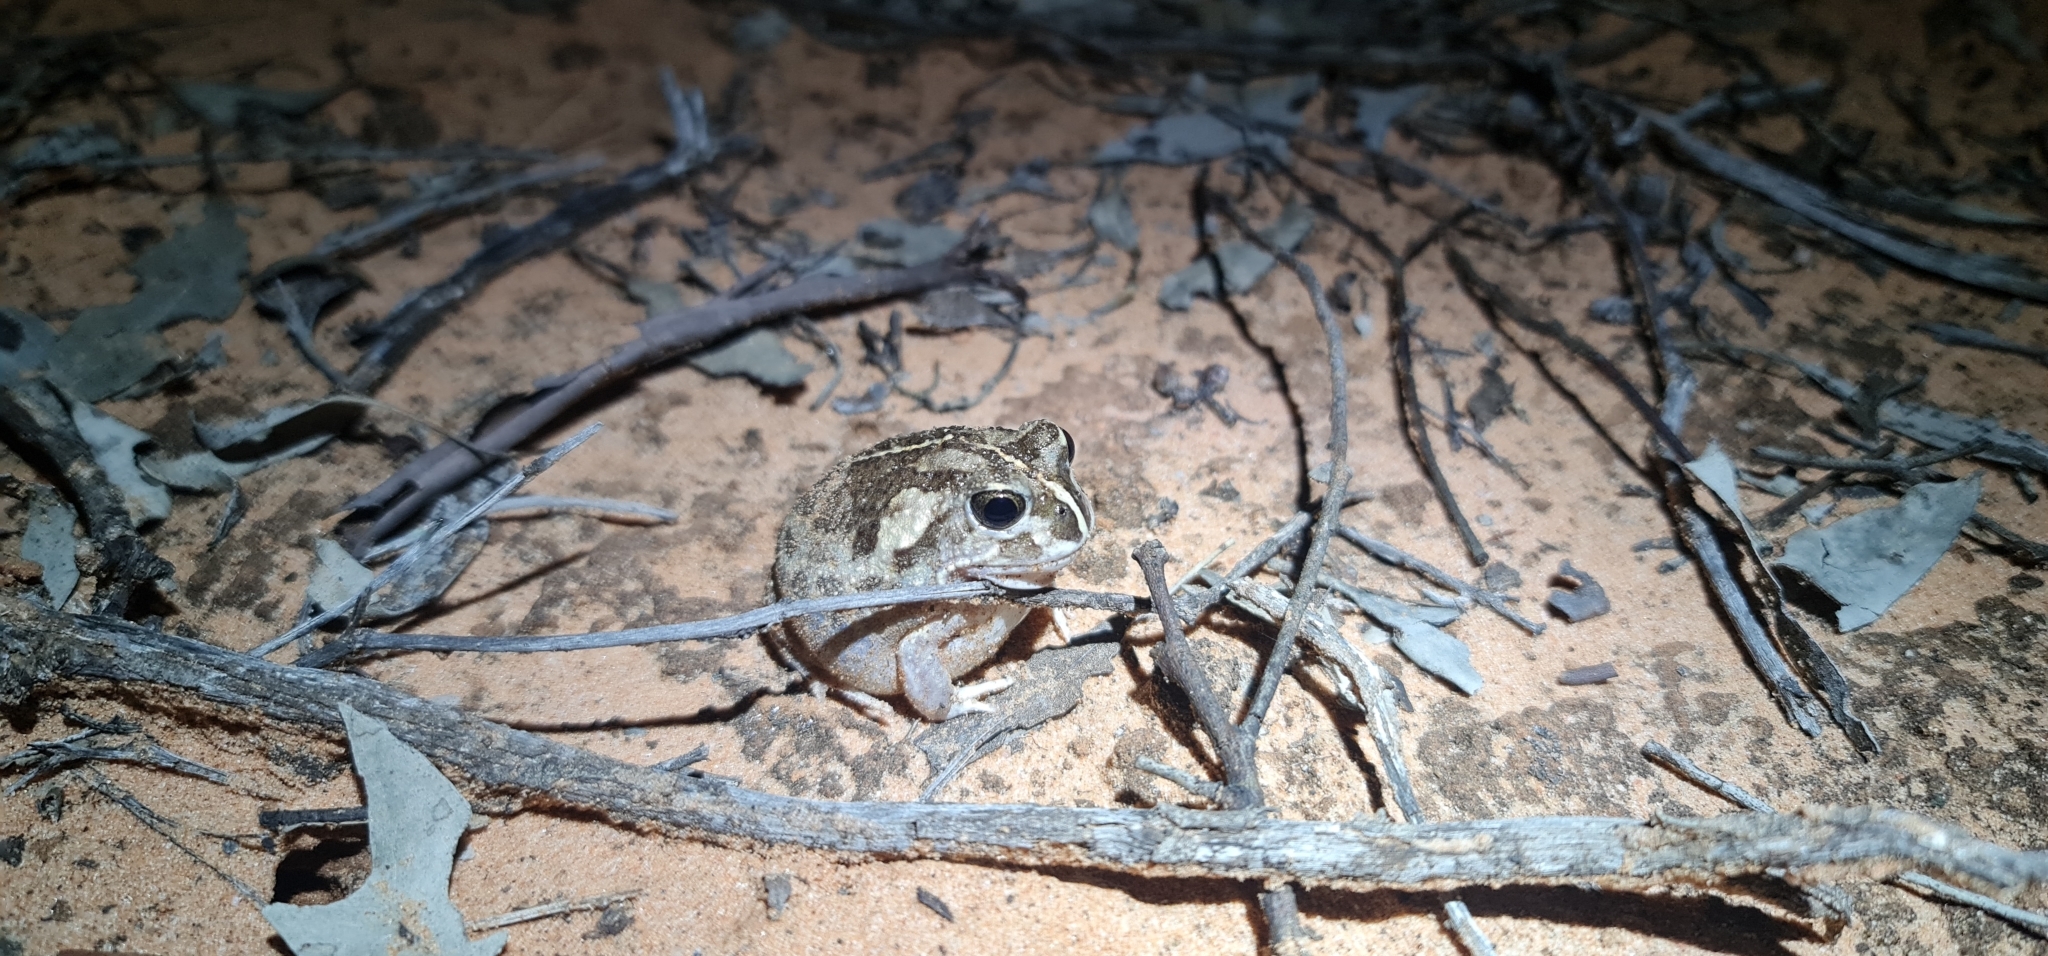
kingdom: Animalia
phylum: Chordata
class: Amphibia
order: Anura
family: Limnodynastidae
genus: Neobatrachus
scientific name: Neobatrachus sudelli
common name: Common spadefoot toad
